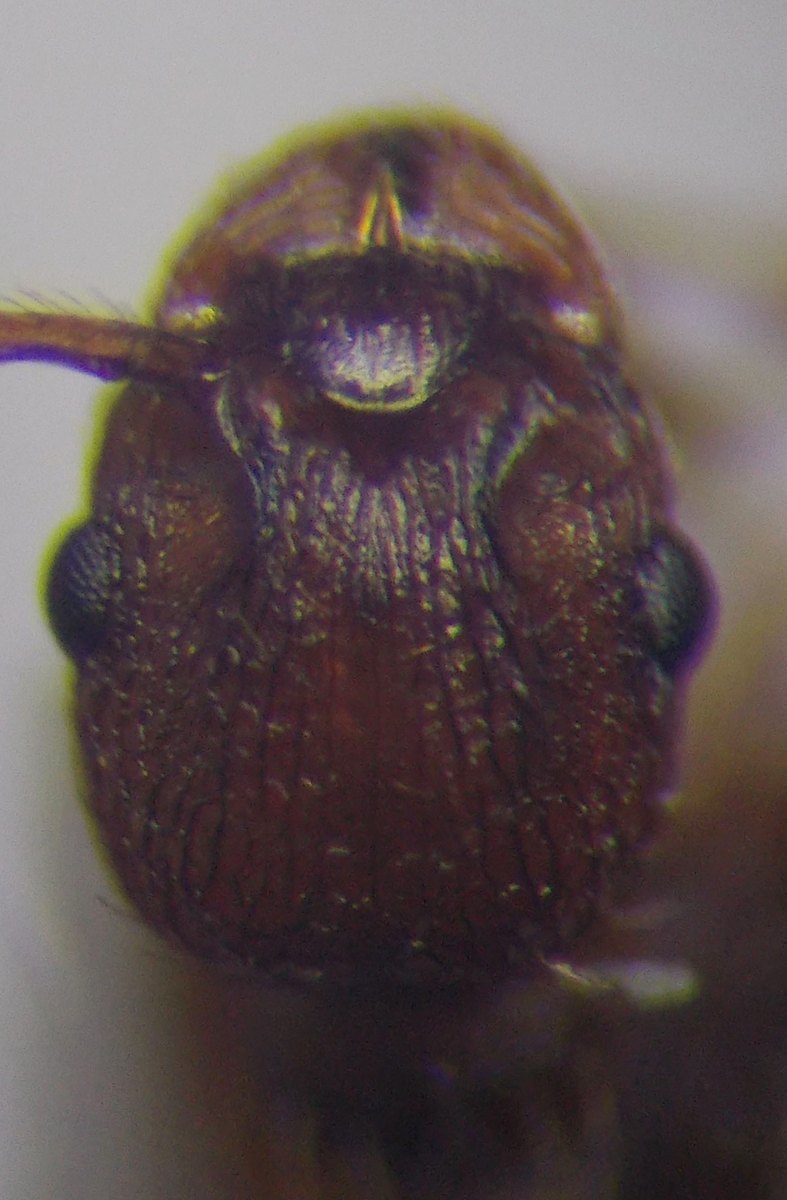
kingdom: Animalia
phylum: Arthropoda
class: Insecta
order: Hymenoptera
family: Formicidae
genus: Myrmica
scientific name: Myrmica scabrinodis
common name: Ant
